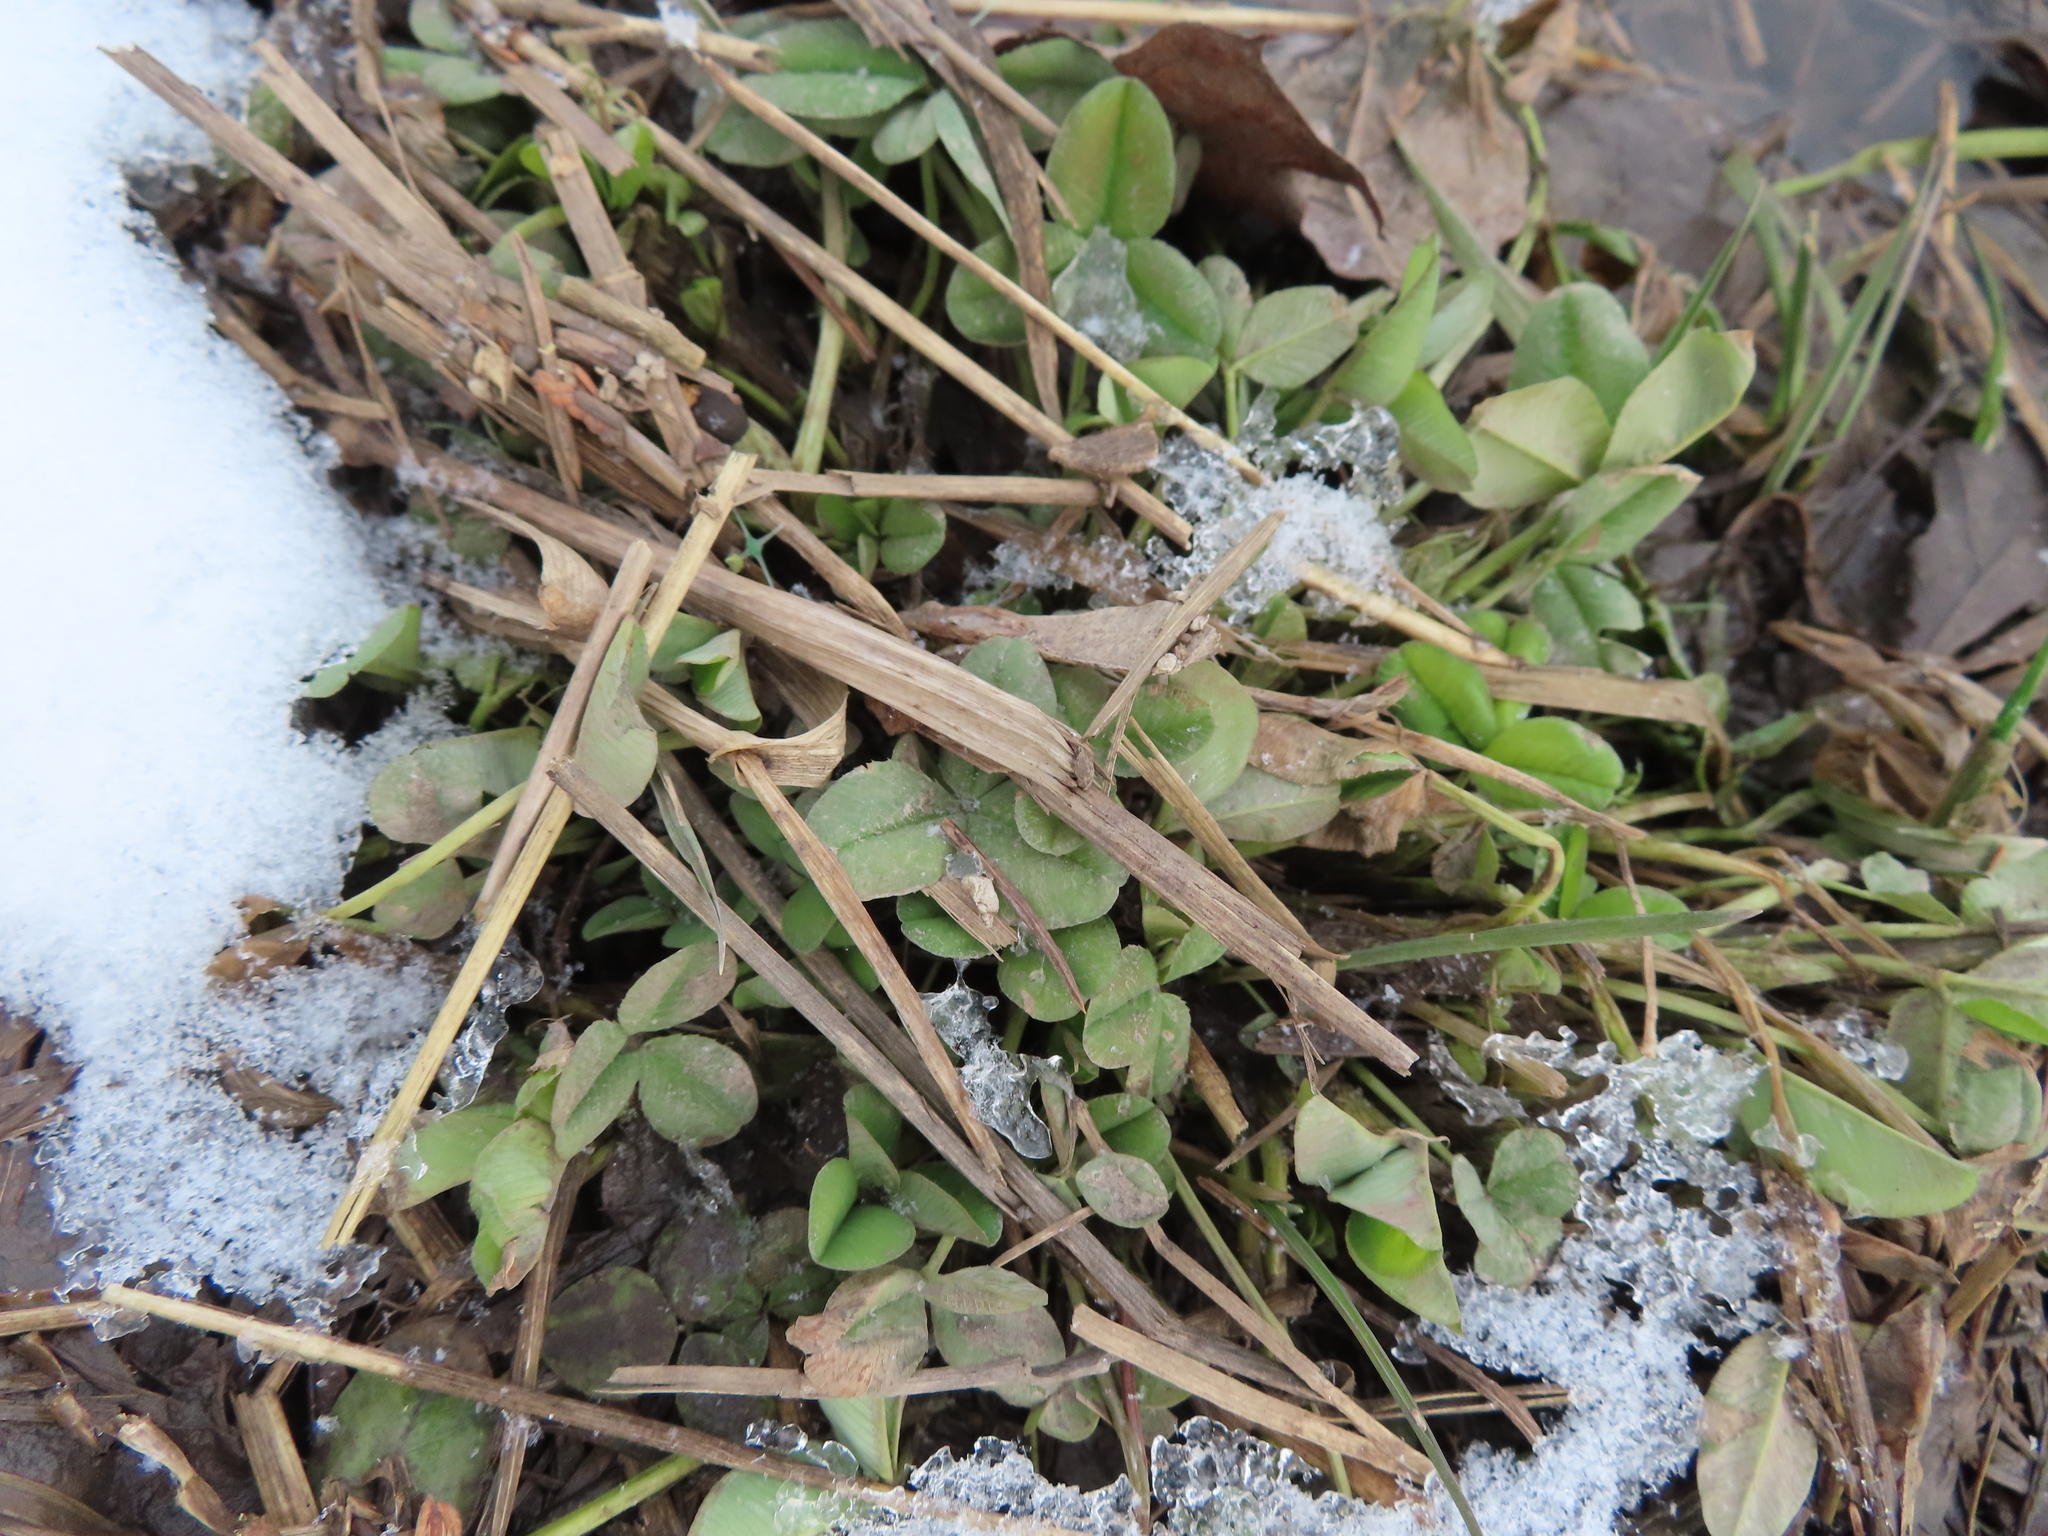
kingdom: Plantae
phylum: Tracheophyta
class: Magnoliopsida
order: Fabales
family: Fabaceae
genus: Trifolium
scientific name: Trifolium
